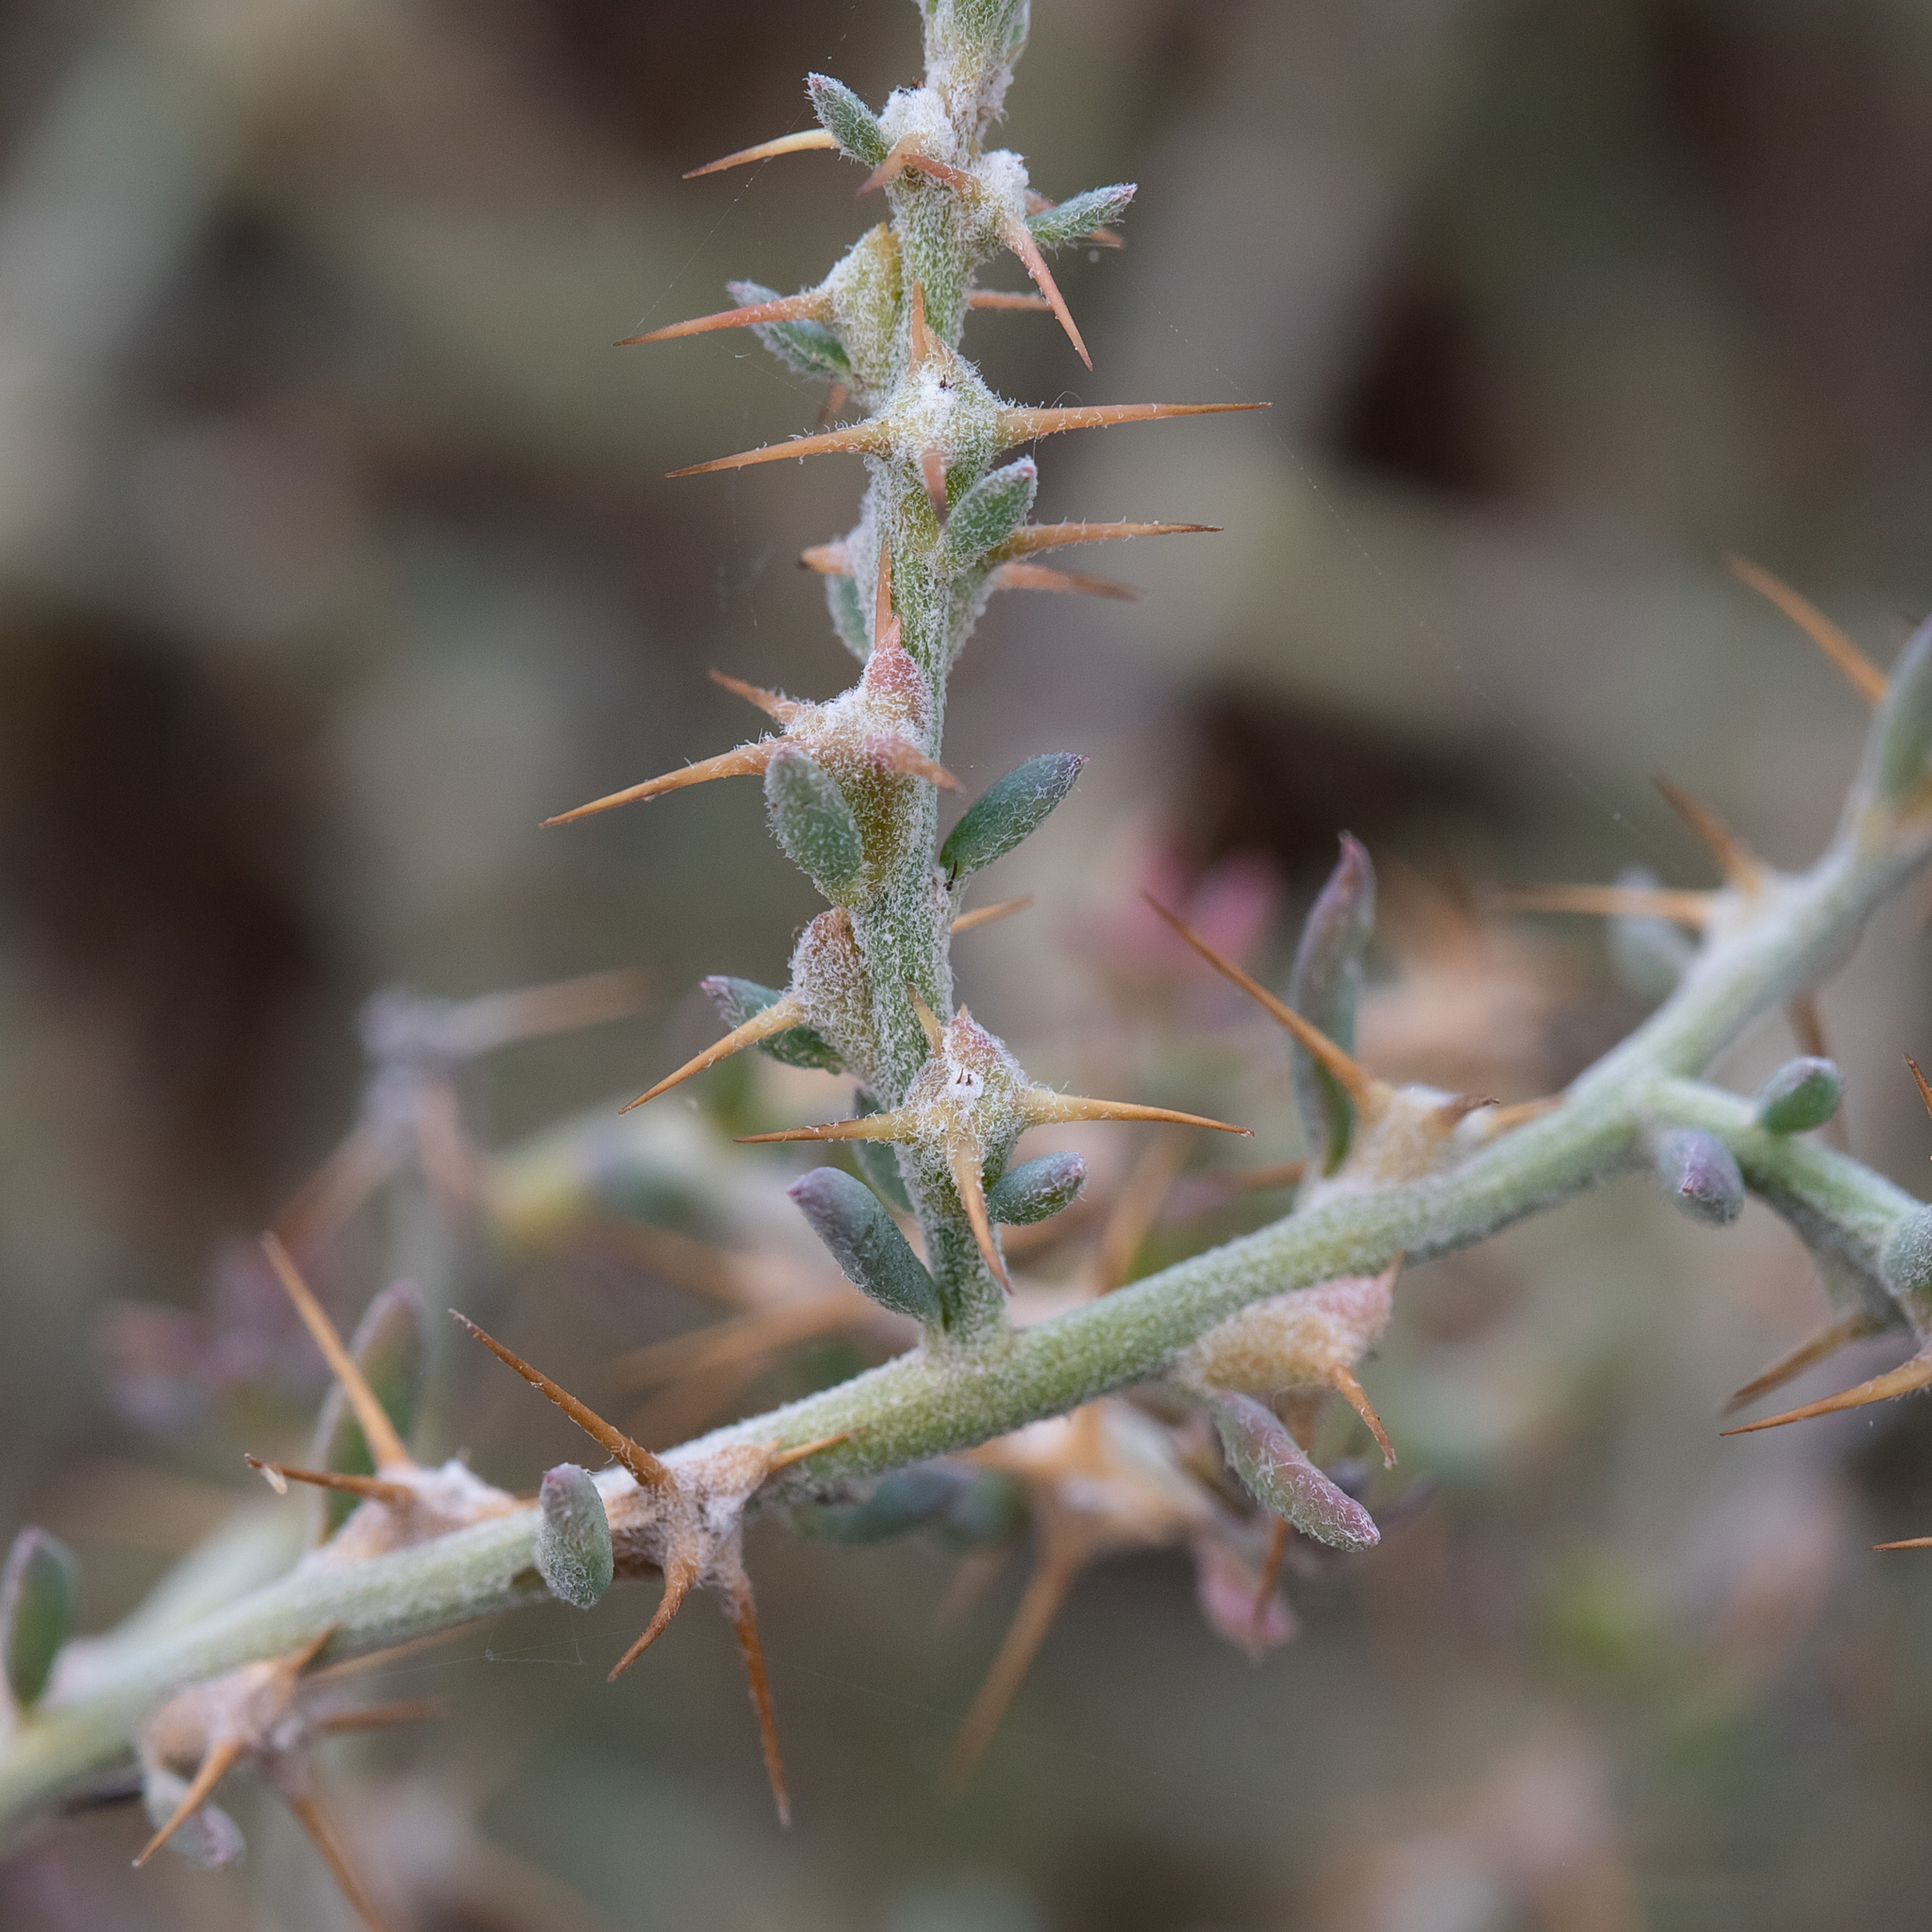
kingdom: Plantae
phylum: Tracheophyta
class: Magnoliopsida
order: Caryophyllales
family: Amaranthaceae
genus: Sclerolaena
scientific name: Sclerolaena muricata
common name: Roly-poly
